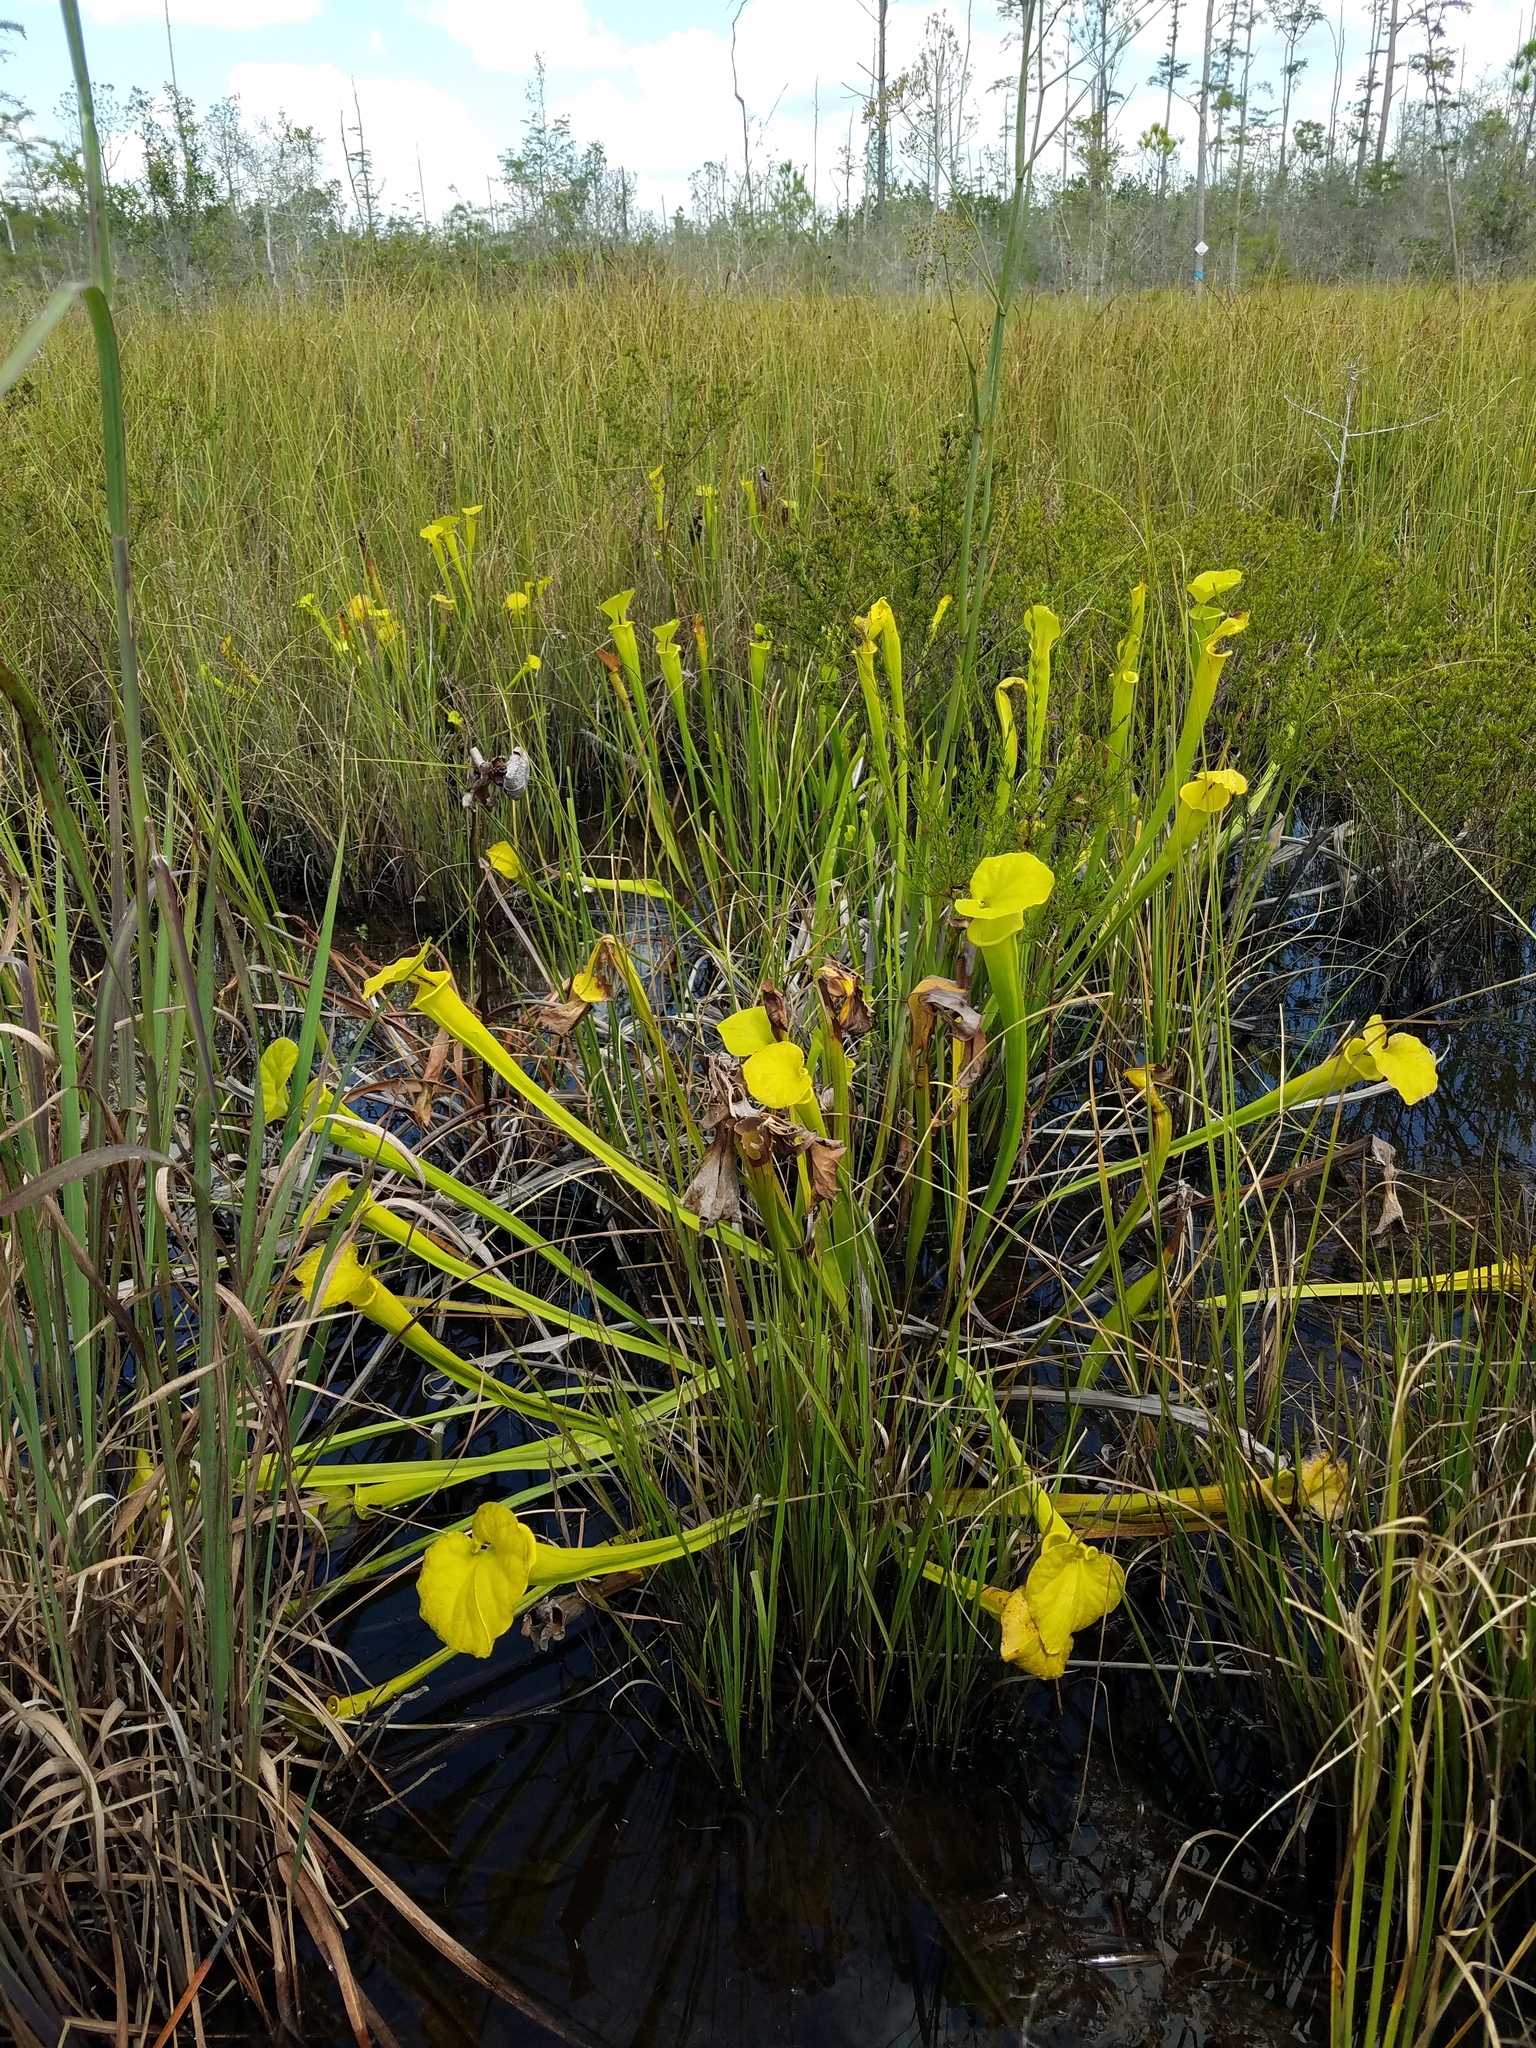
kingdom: Plantae
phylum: Tracheophyta
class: Magnoliopsida
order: Ericales
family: Sarraceniaceae
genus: Sarracenia
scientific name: Sarracenia flava
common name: Trumpets
